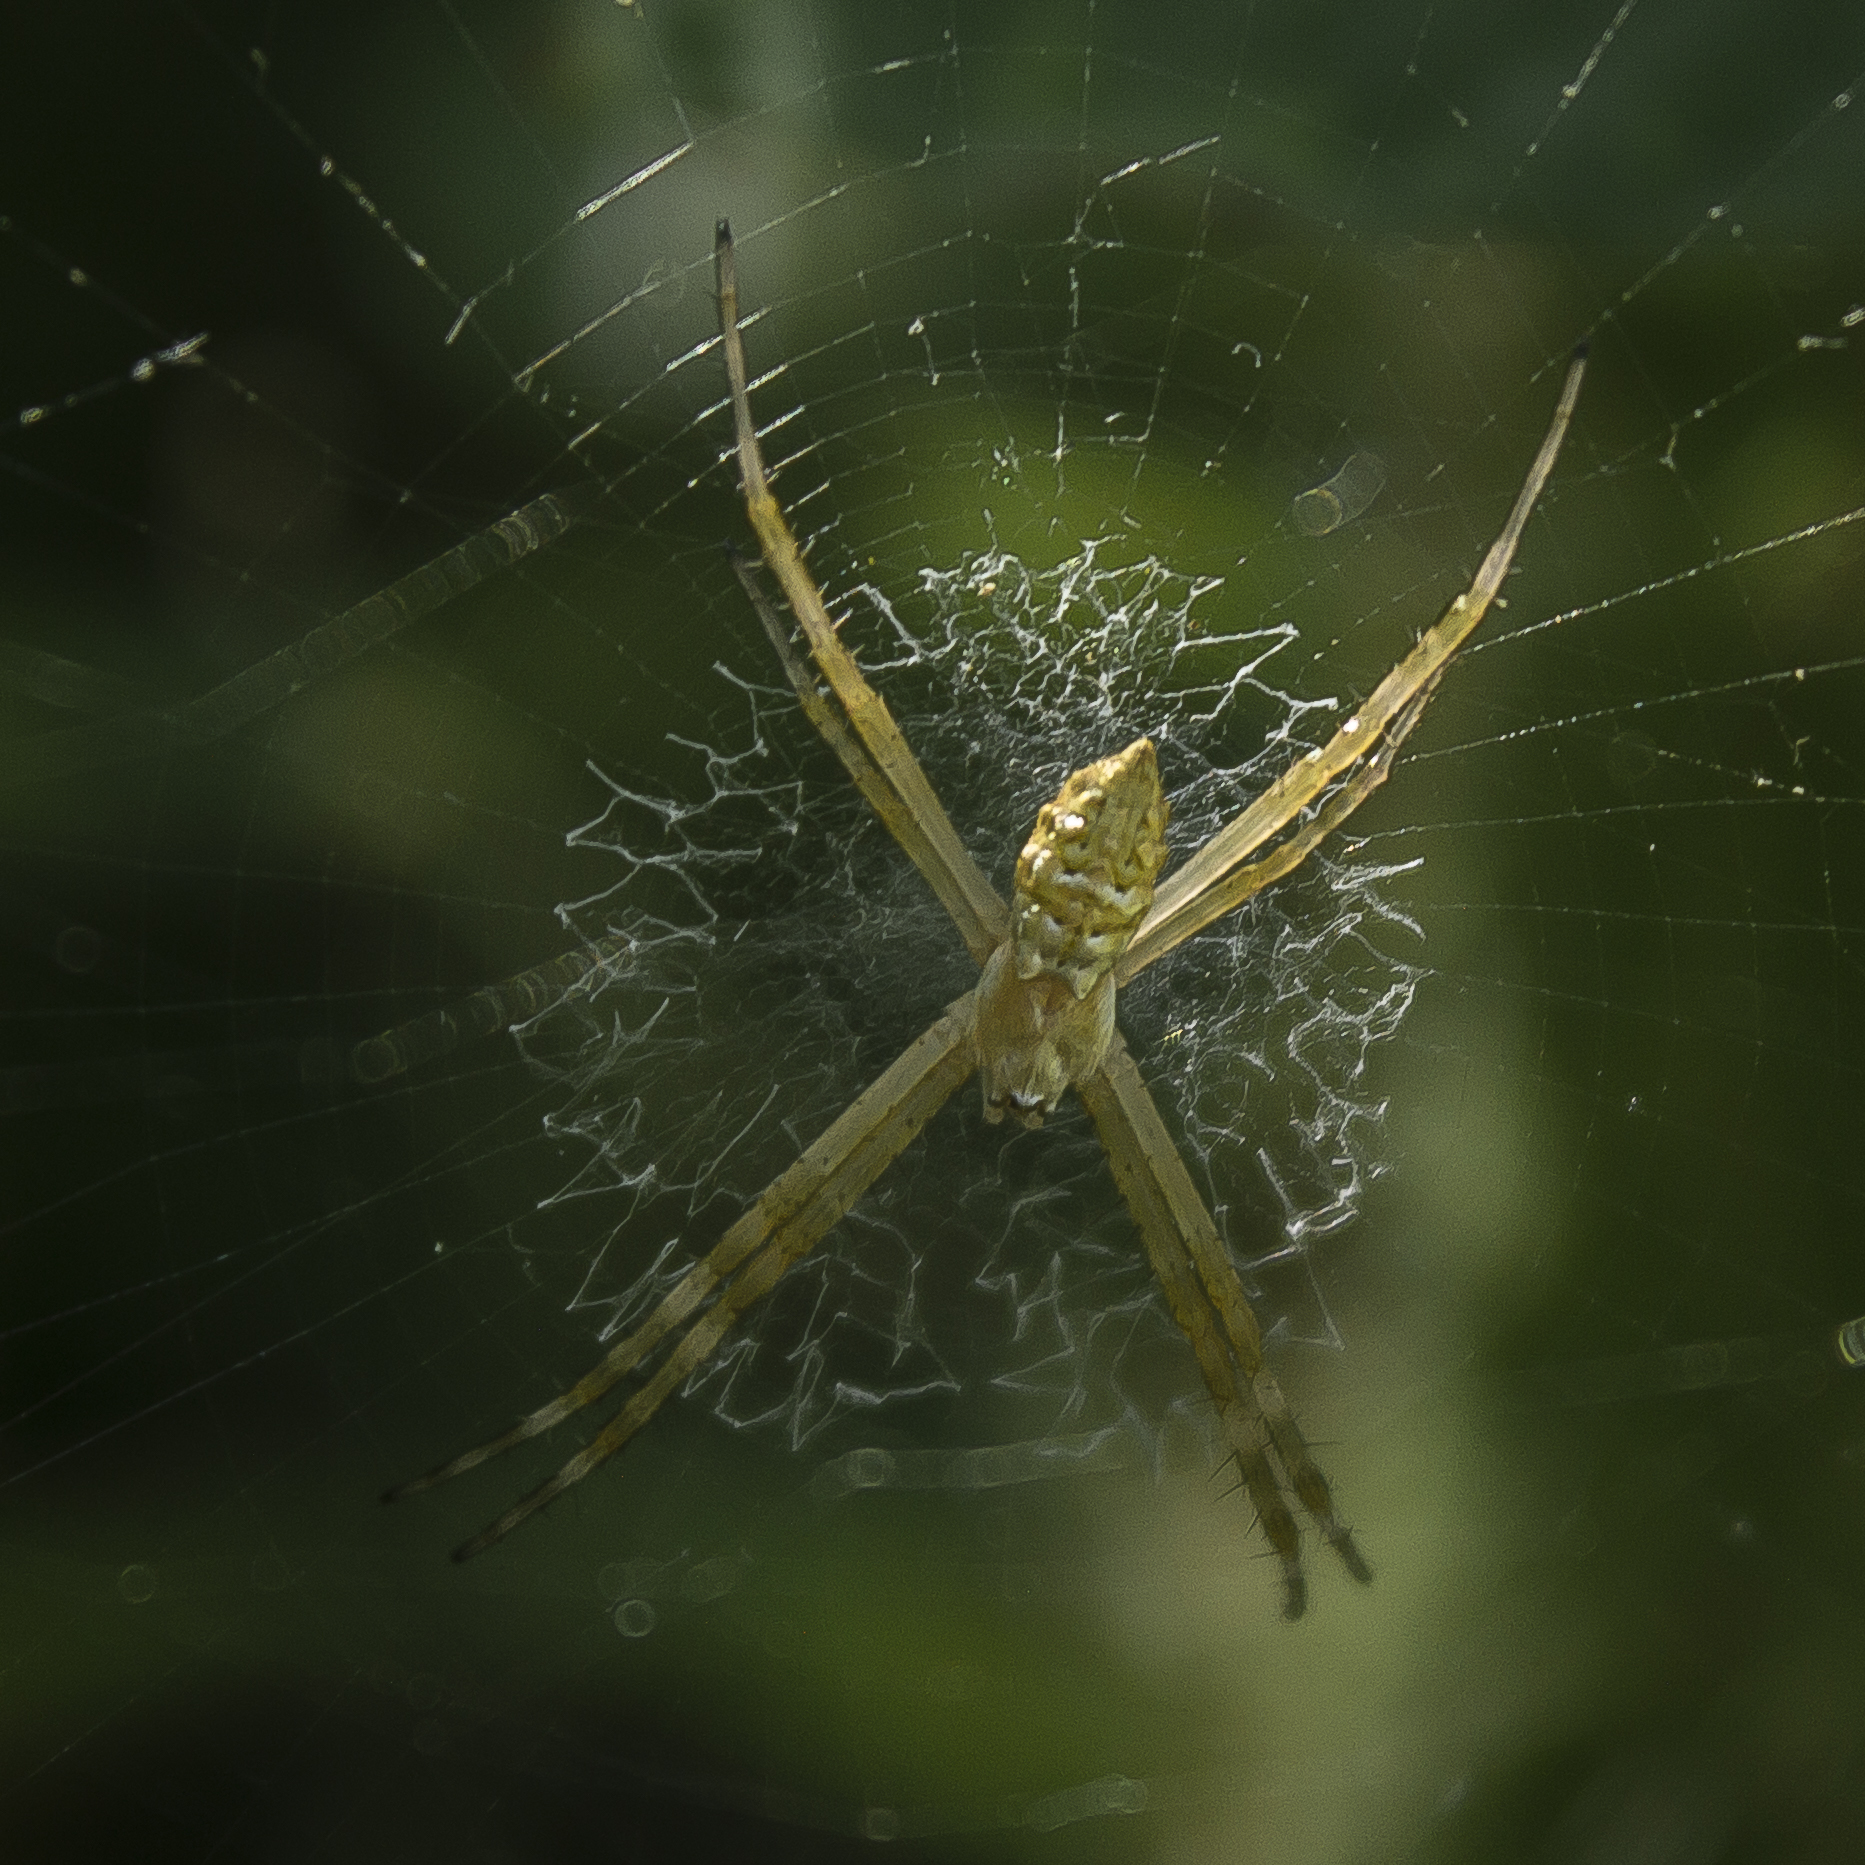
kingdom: Animalia
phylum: Arthropoda
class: Arachnida
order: Araneae
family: Araneidae
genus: Argiope
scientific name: Argiope argentata
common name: Orb weavers
